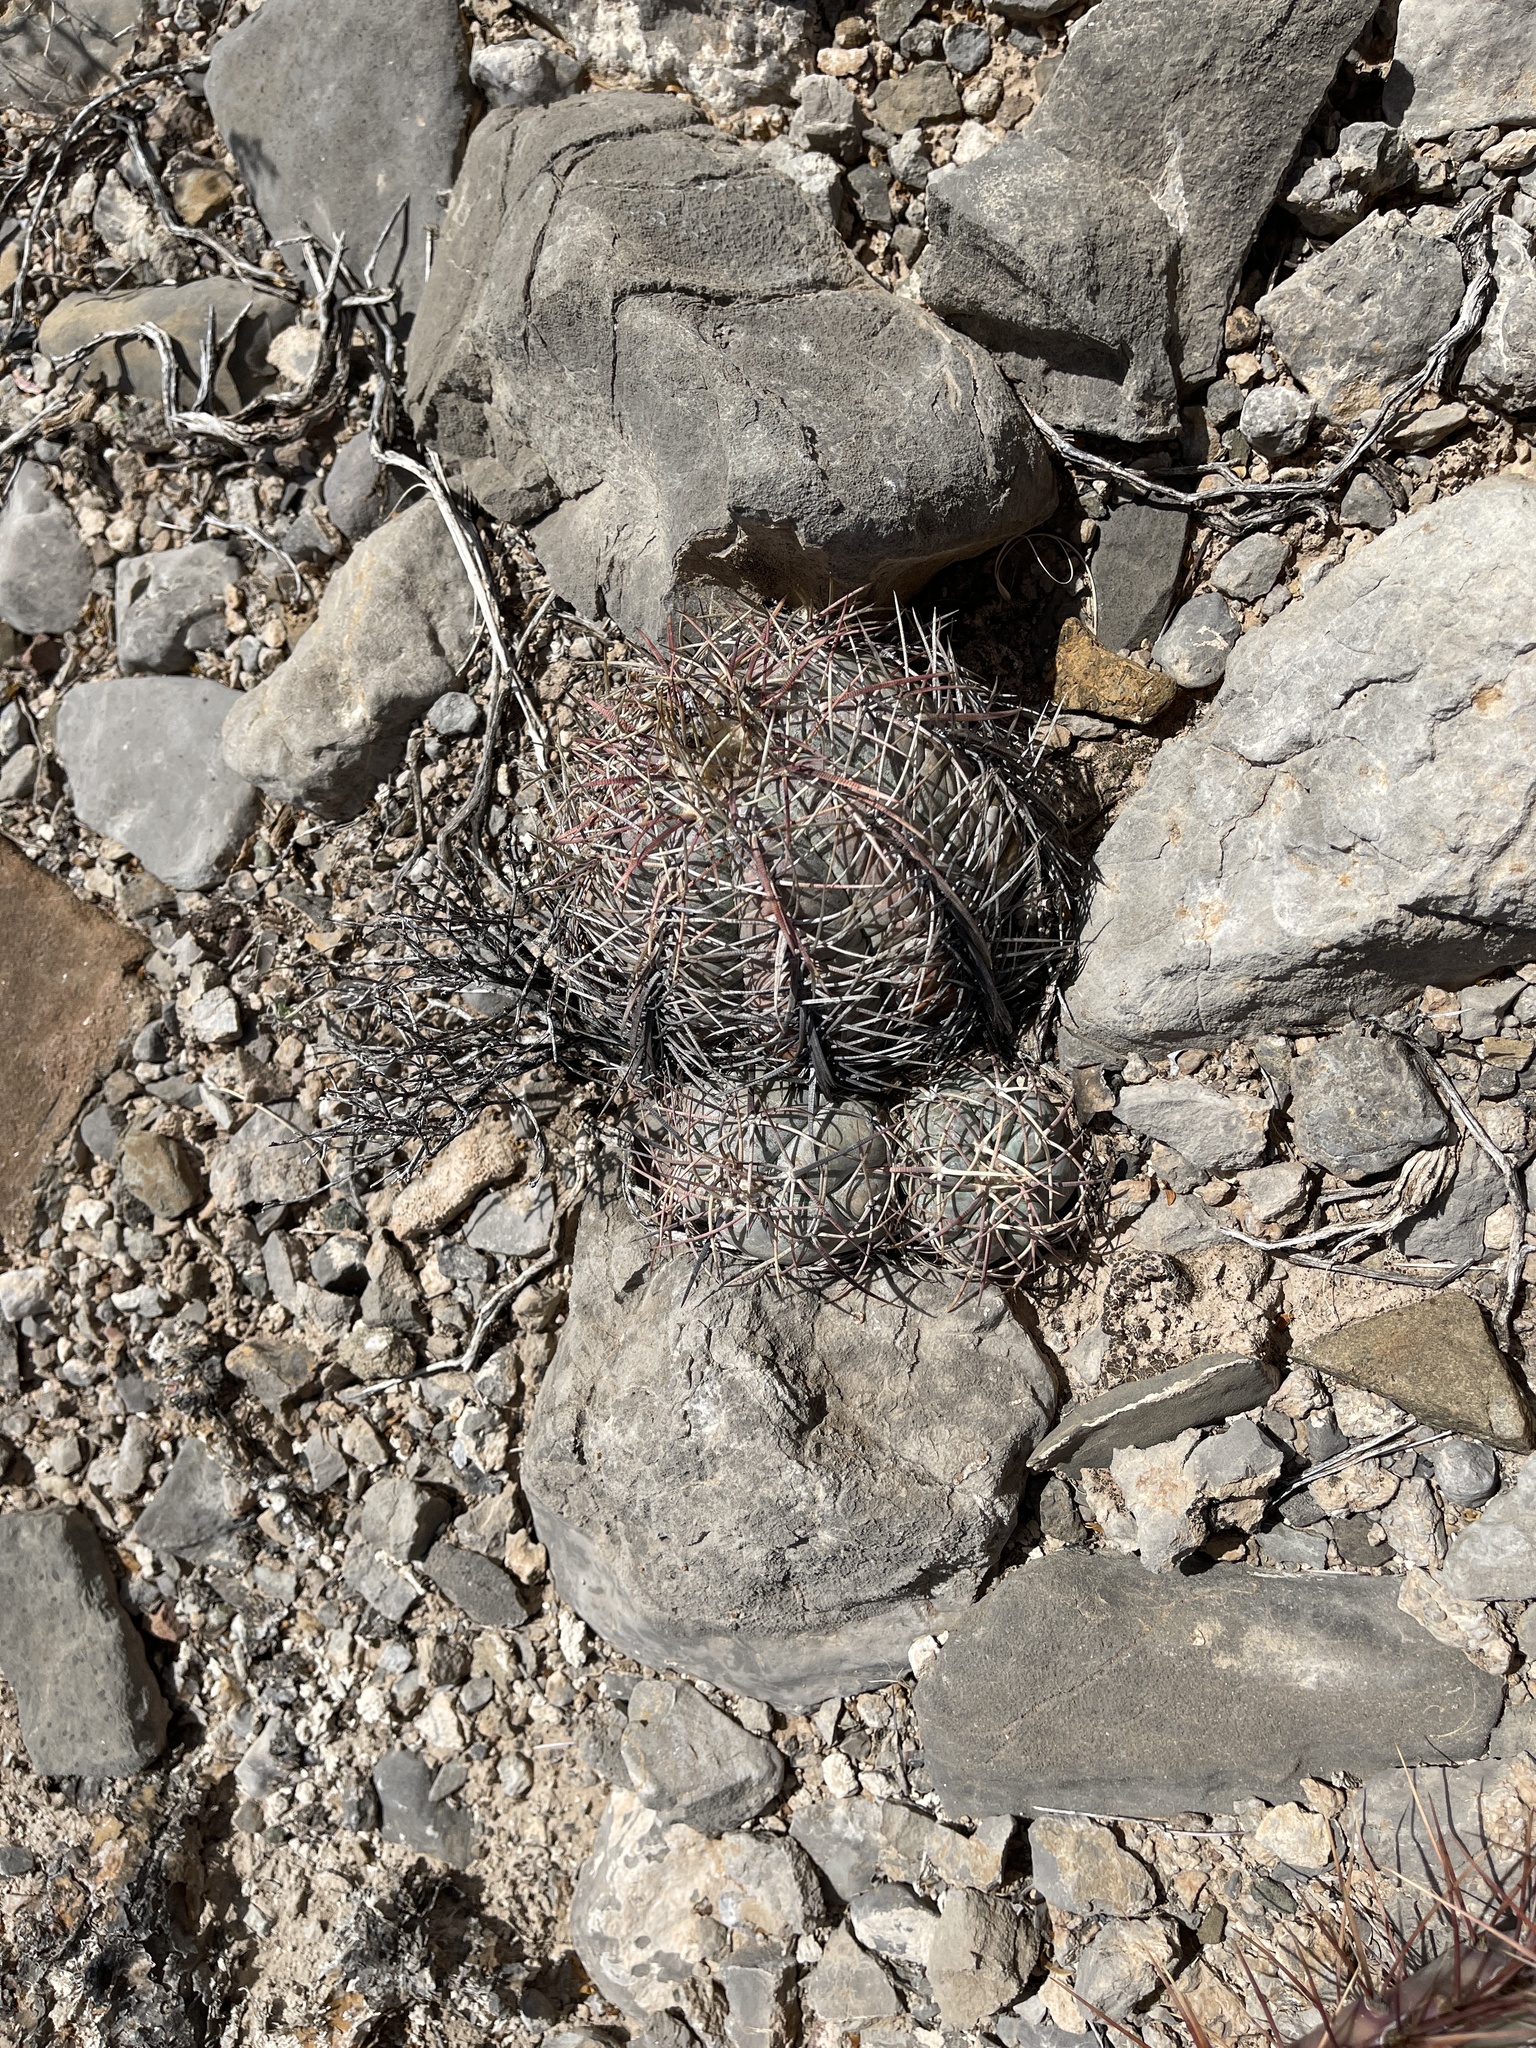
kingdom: Plantae
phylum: Tracheophyta
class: Magnoliopsida
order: Caryophyllales
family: Cactaceae
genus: Echinocactus
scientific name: Echinocactus horizonthalonius
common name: Devilshead
